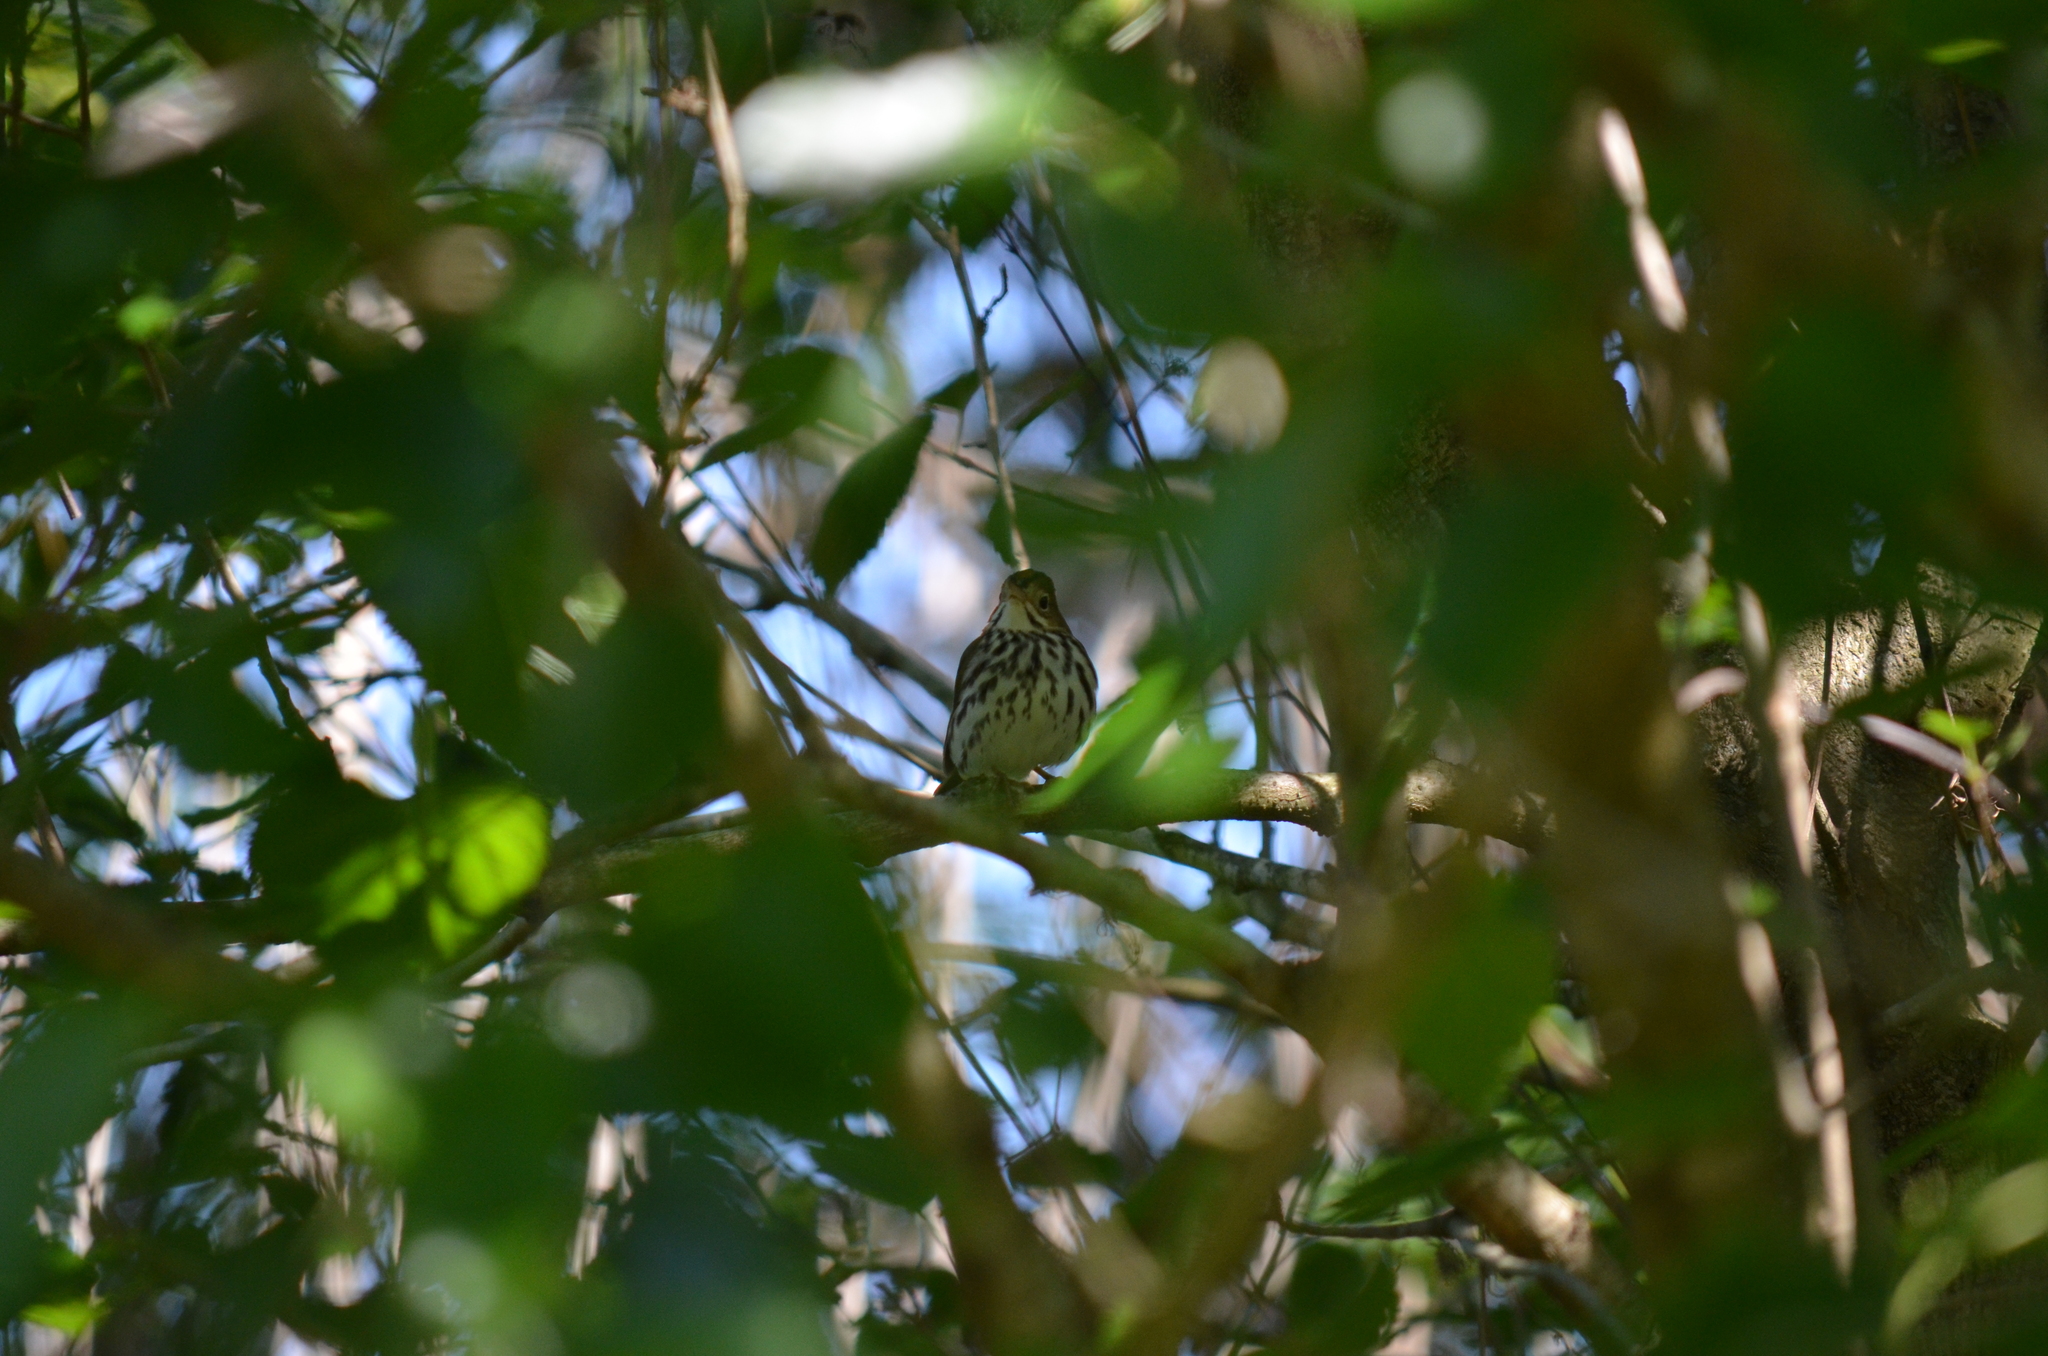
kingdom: Animalia
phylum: Chordata
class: Aves
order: Passeriformes
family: Parulidae
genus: Seiurus
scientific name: Seiurus aurocapilla
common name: Ovenbird
